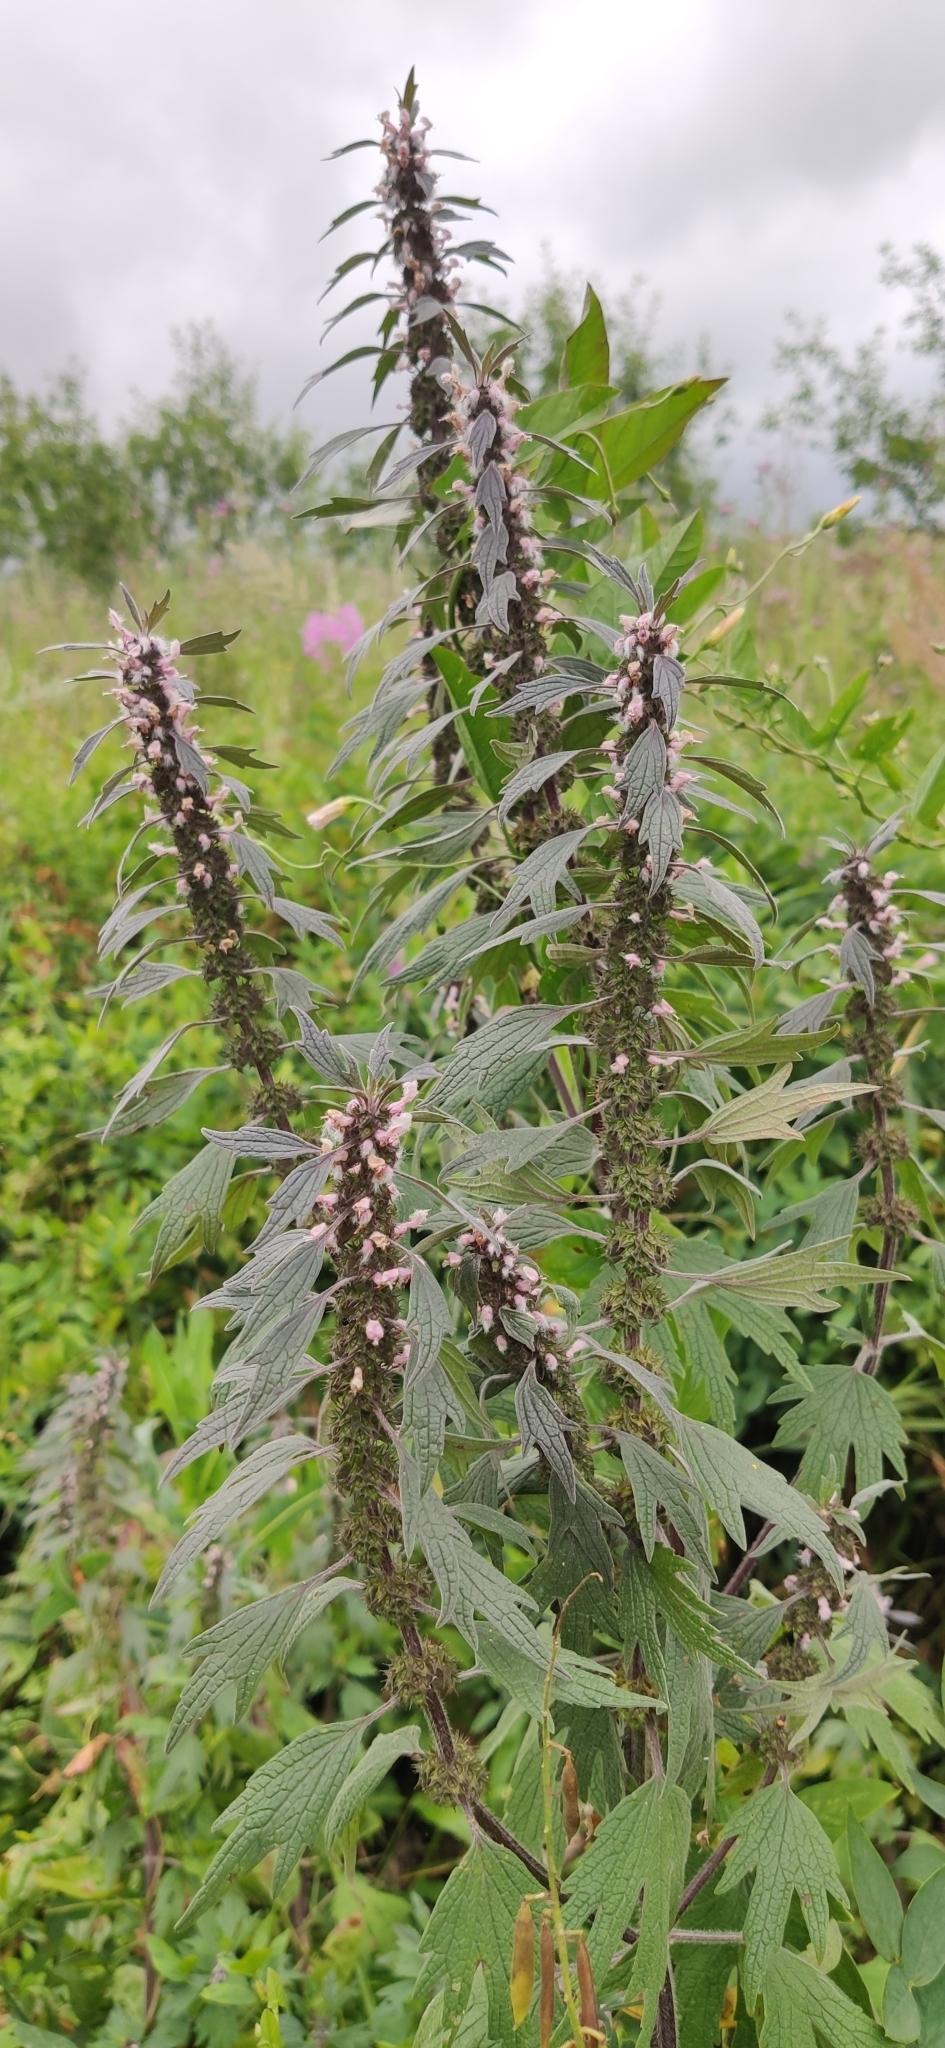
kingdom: Plantae
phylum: Tracheophyta
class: Magnoliopsida
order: Lamiales
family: Lamiaceae
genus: Leonurus
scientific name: Leonurus quinquelobatus
